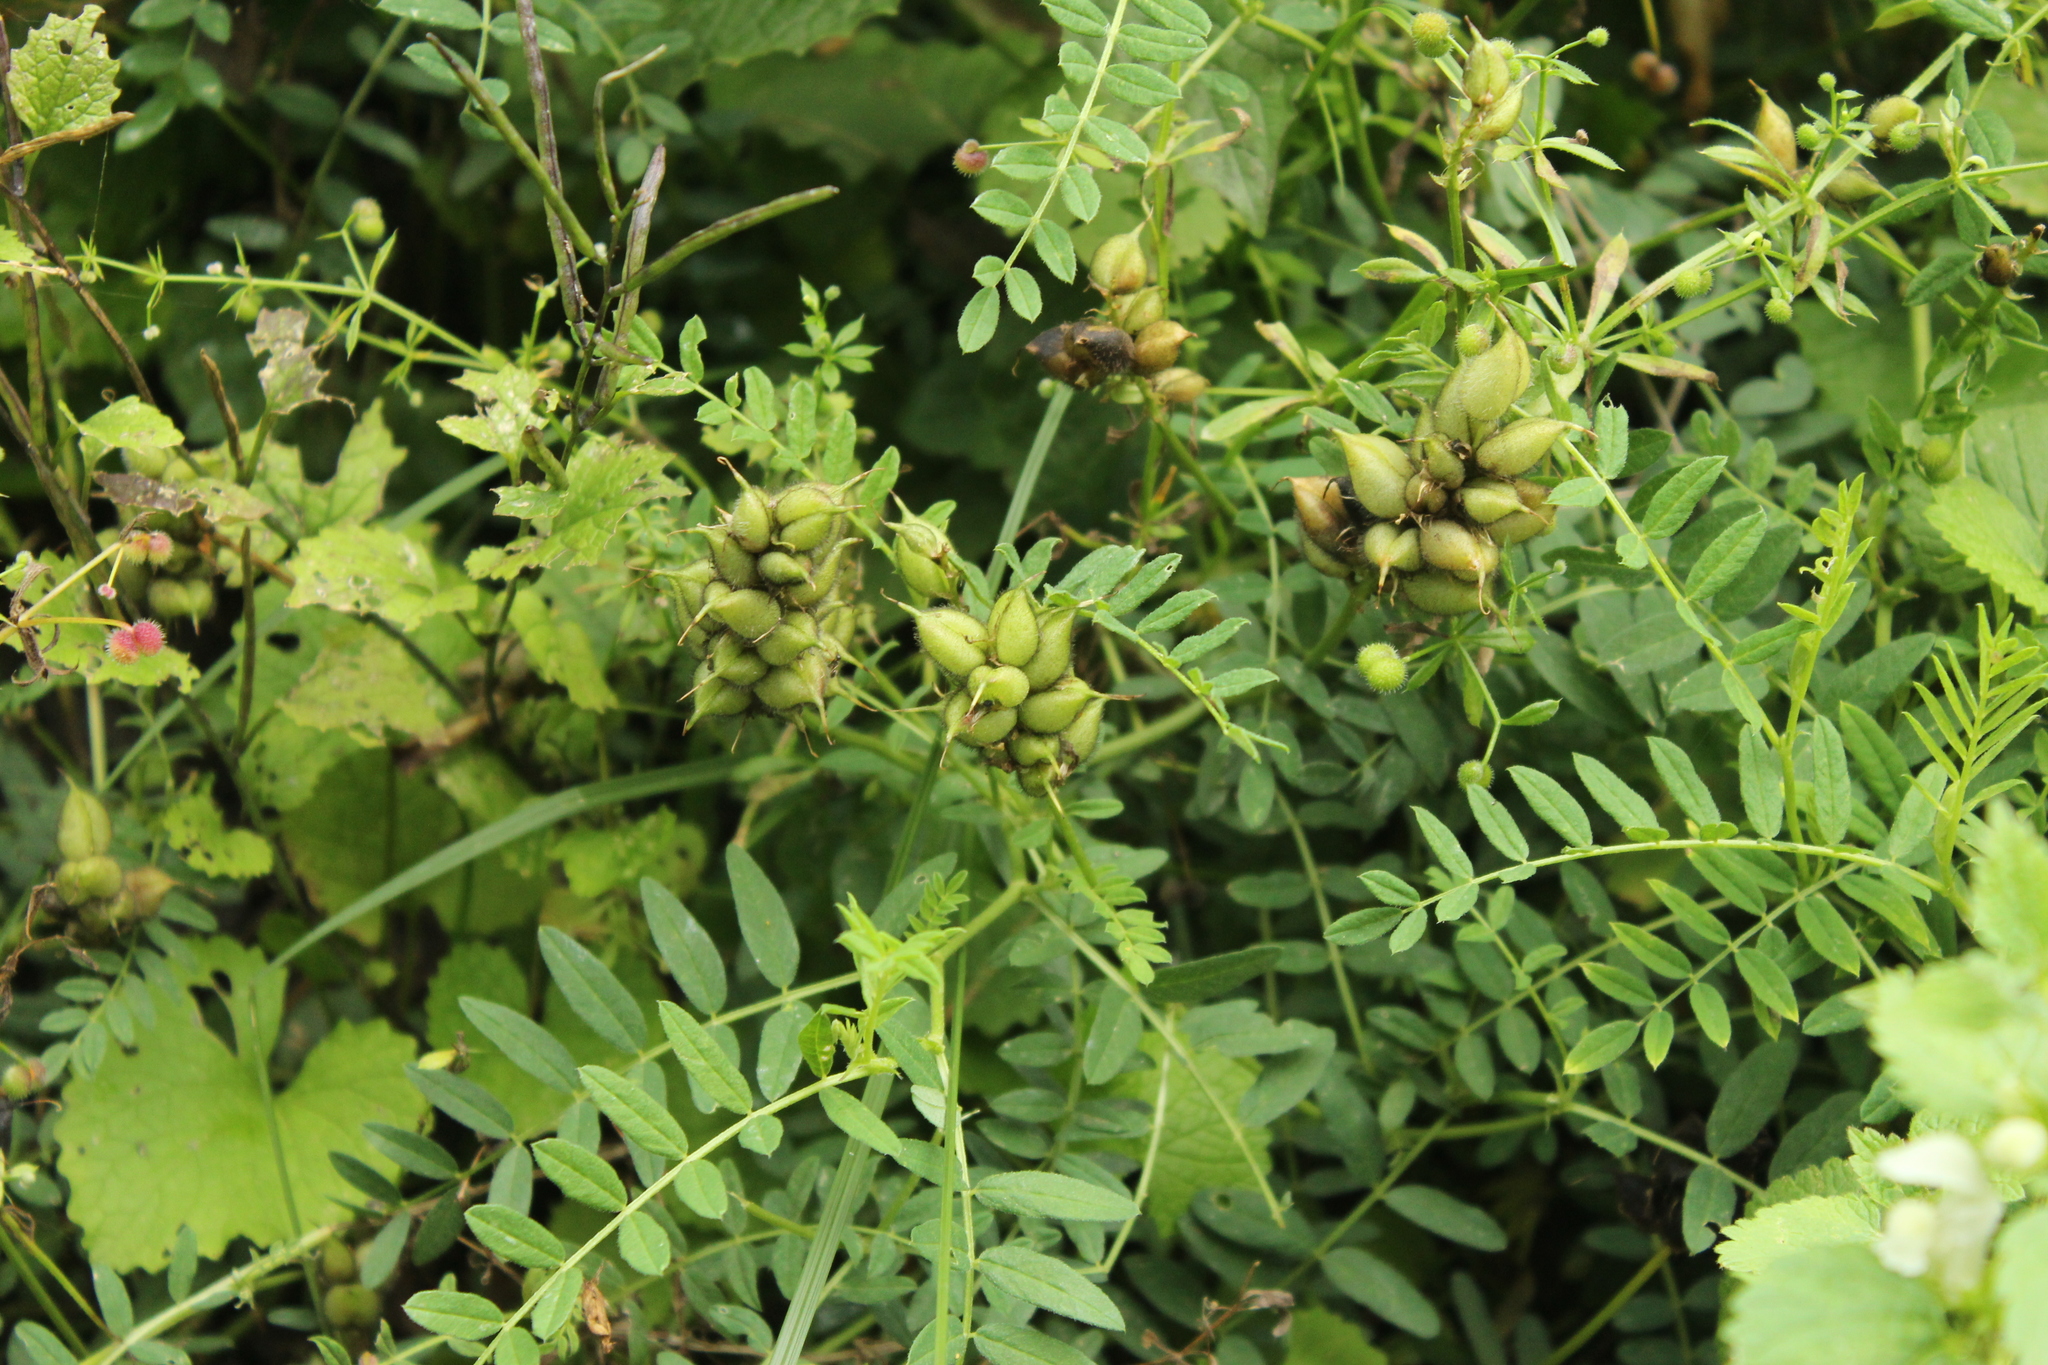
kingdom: Plantae
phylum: Tracheophyta
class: Magnoliopsida
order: Fabales
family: Fabaceae
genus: Astragalus
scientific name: Astragalus cicer
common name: Chick-pea milk-vetch
